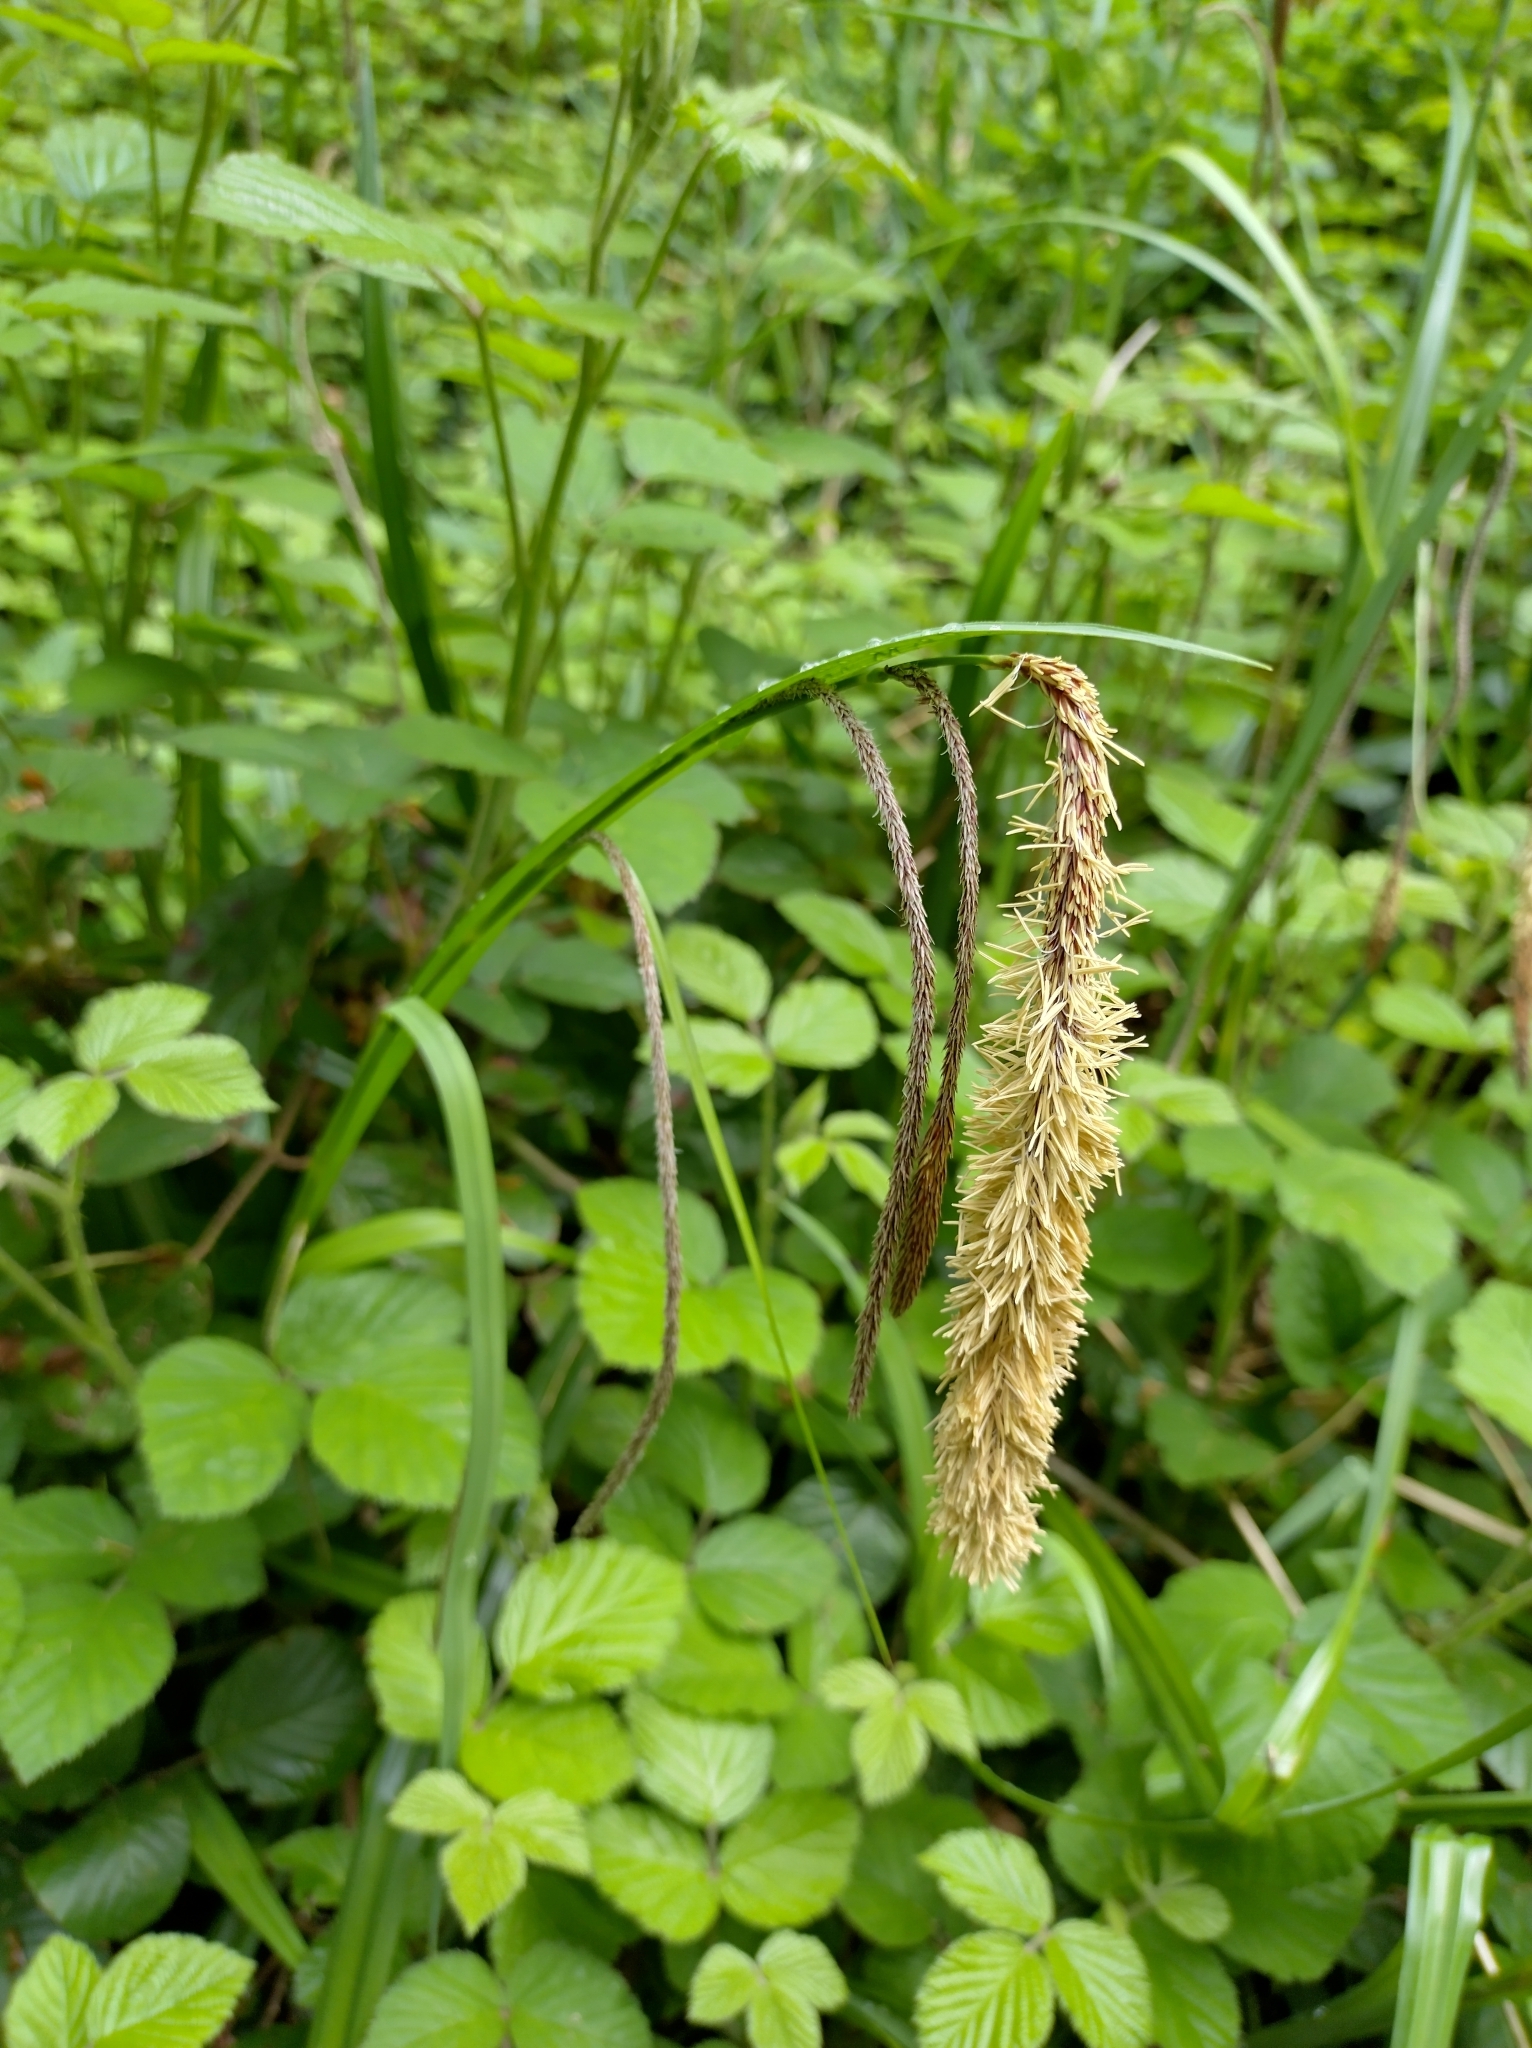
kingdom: Plantae
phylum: Tracheophyta
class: Liliopsida
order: Poales
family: Cyperaceae
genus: Carex
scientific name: Carex pendula
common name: Pendulous sedge
